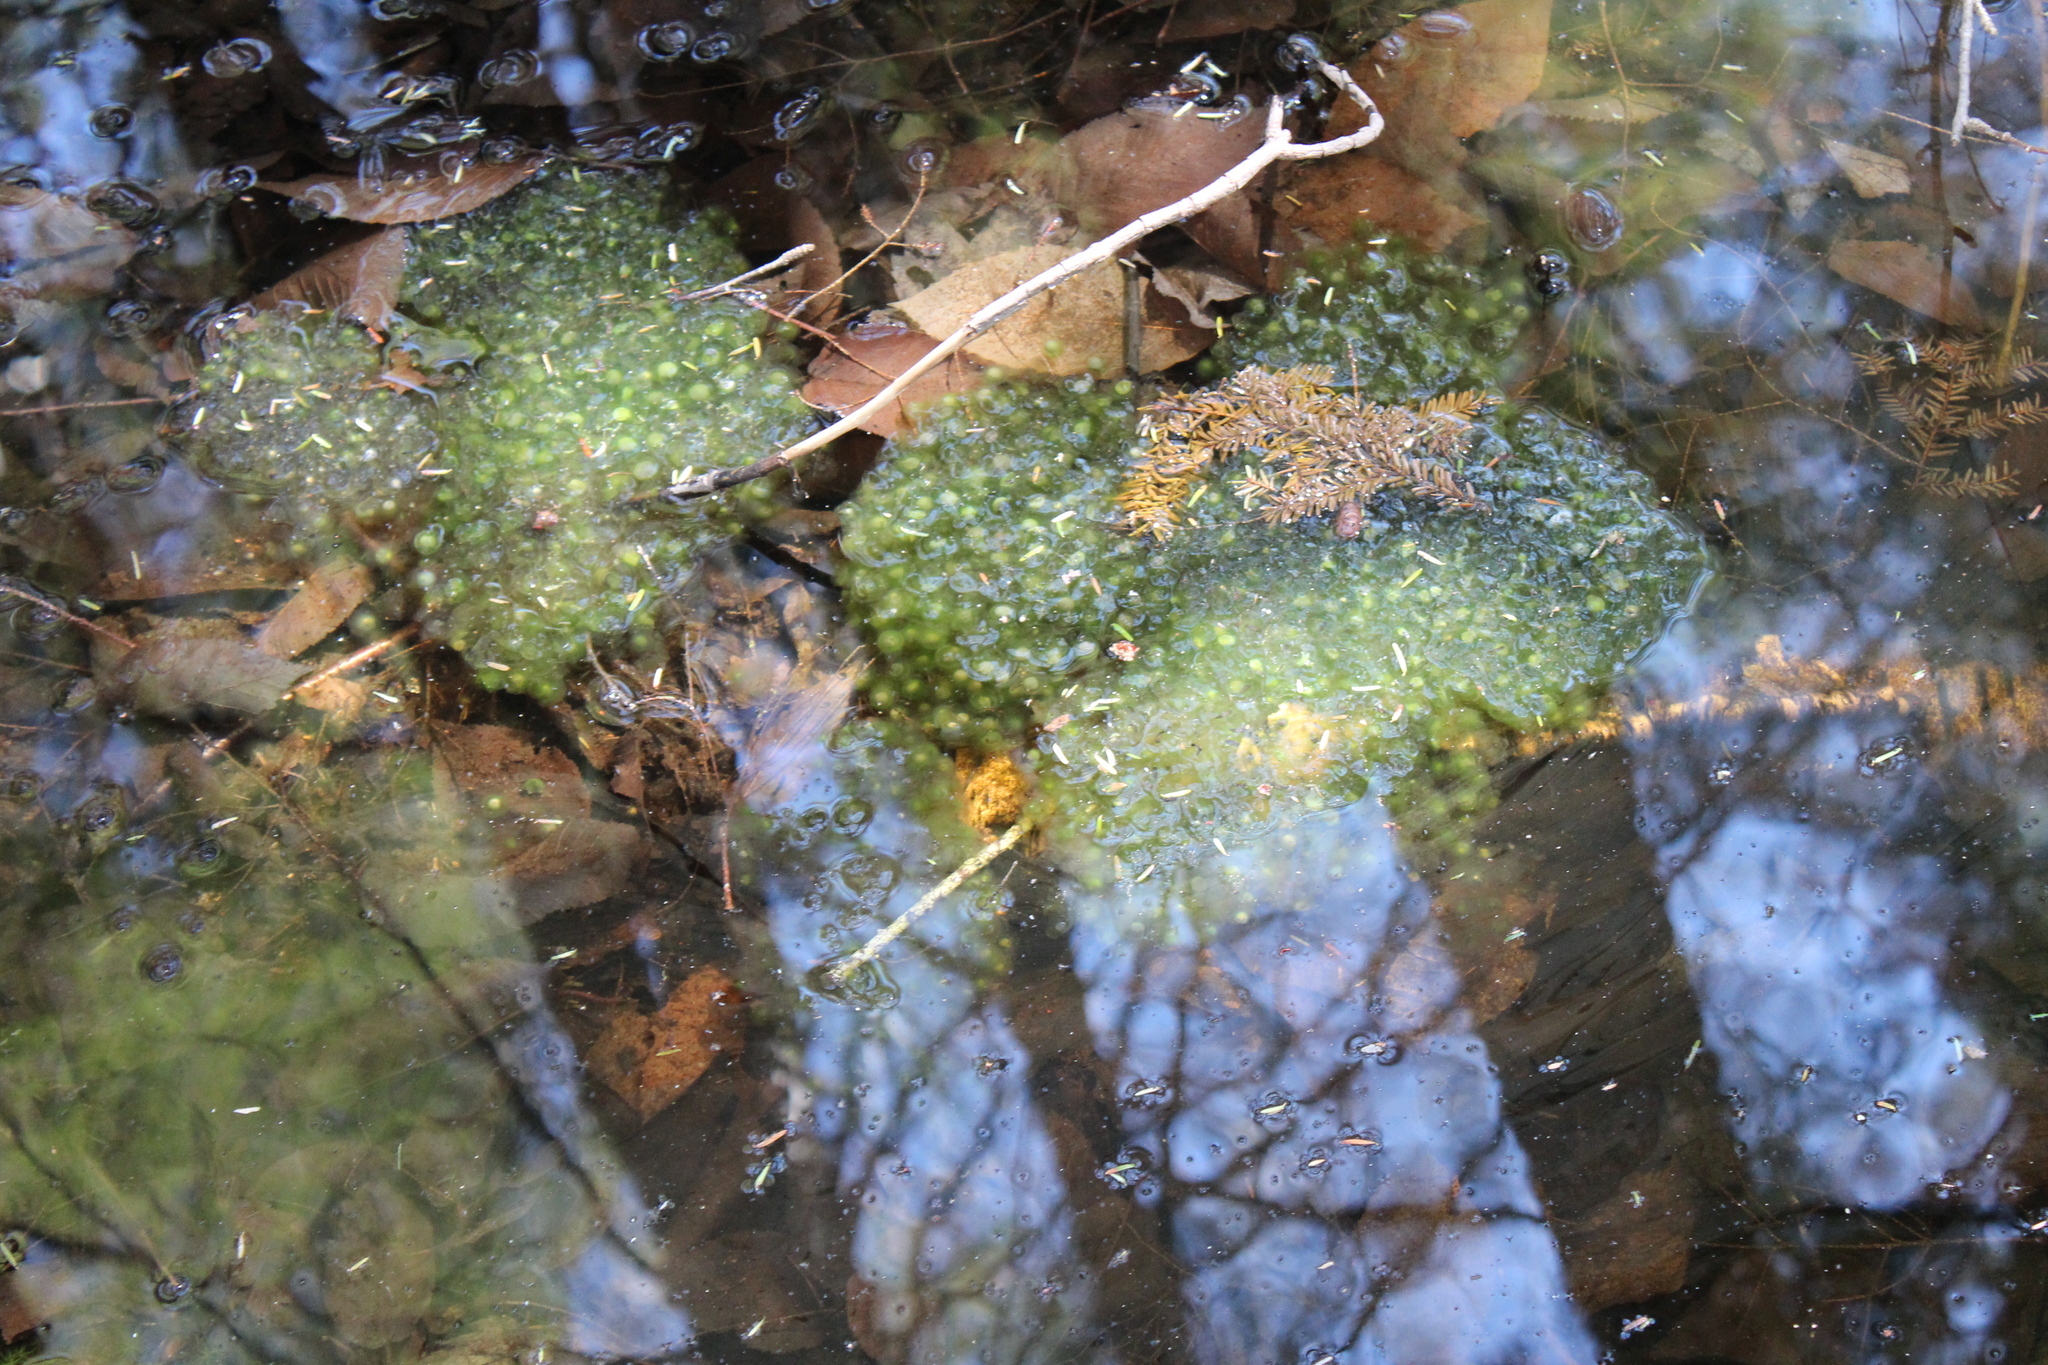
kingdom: Animalia
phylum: Chordata
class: Amphibia
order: Anura
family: Ranidae
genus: Lithobates
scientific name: Lithobates sylvaticus
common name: Wood frog
